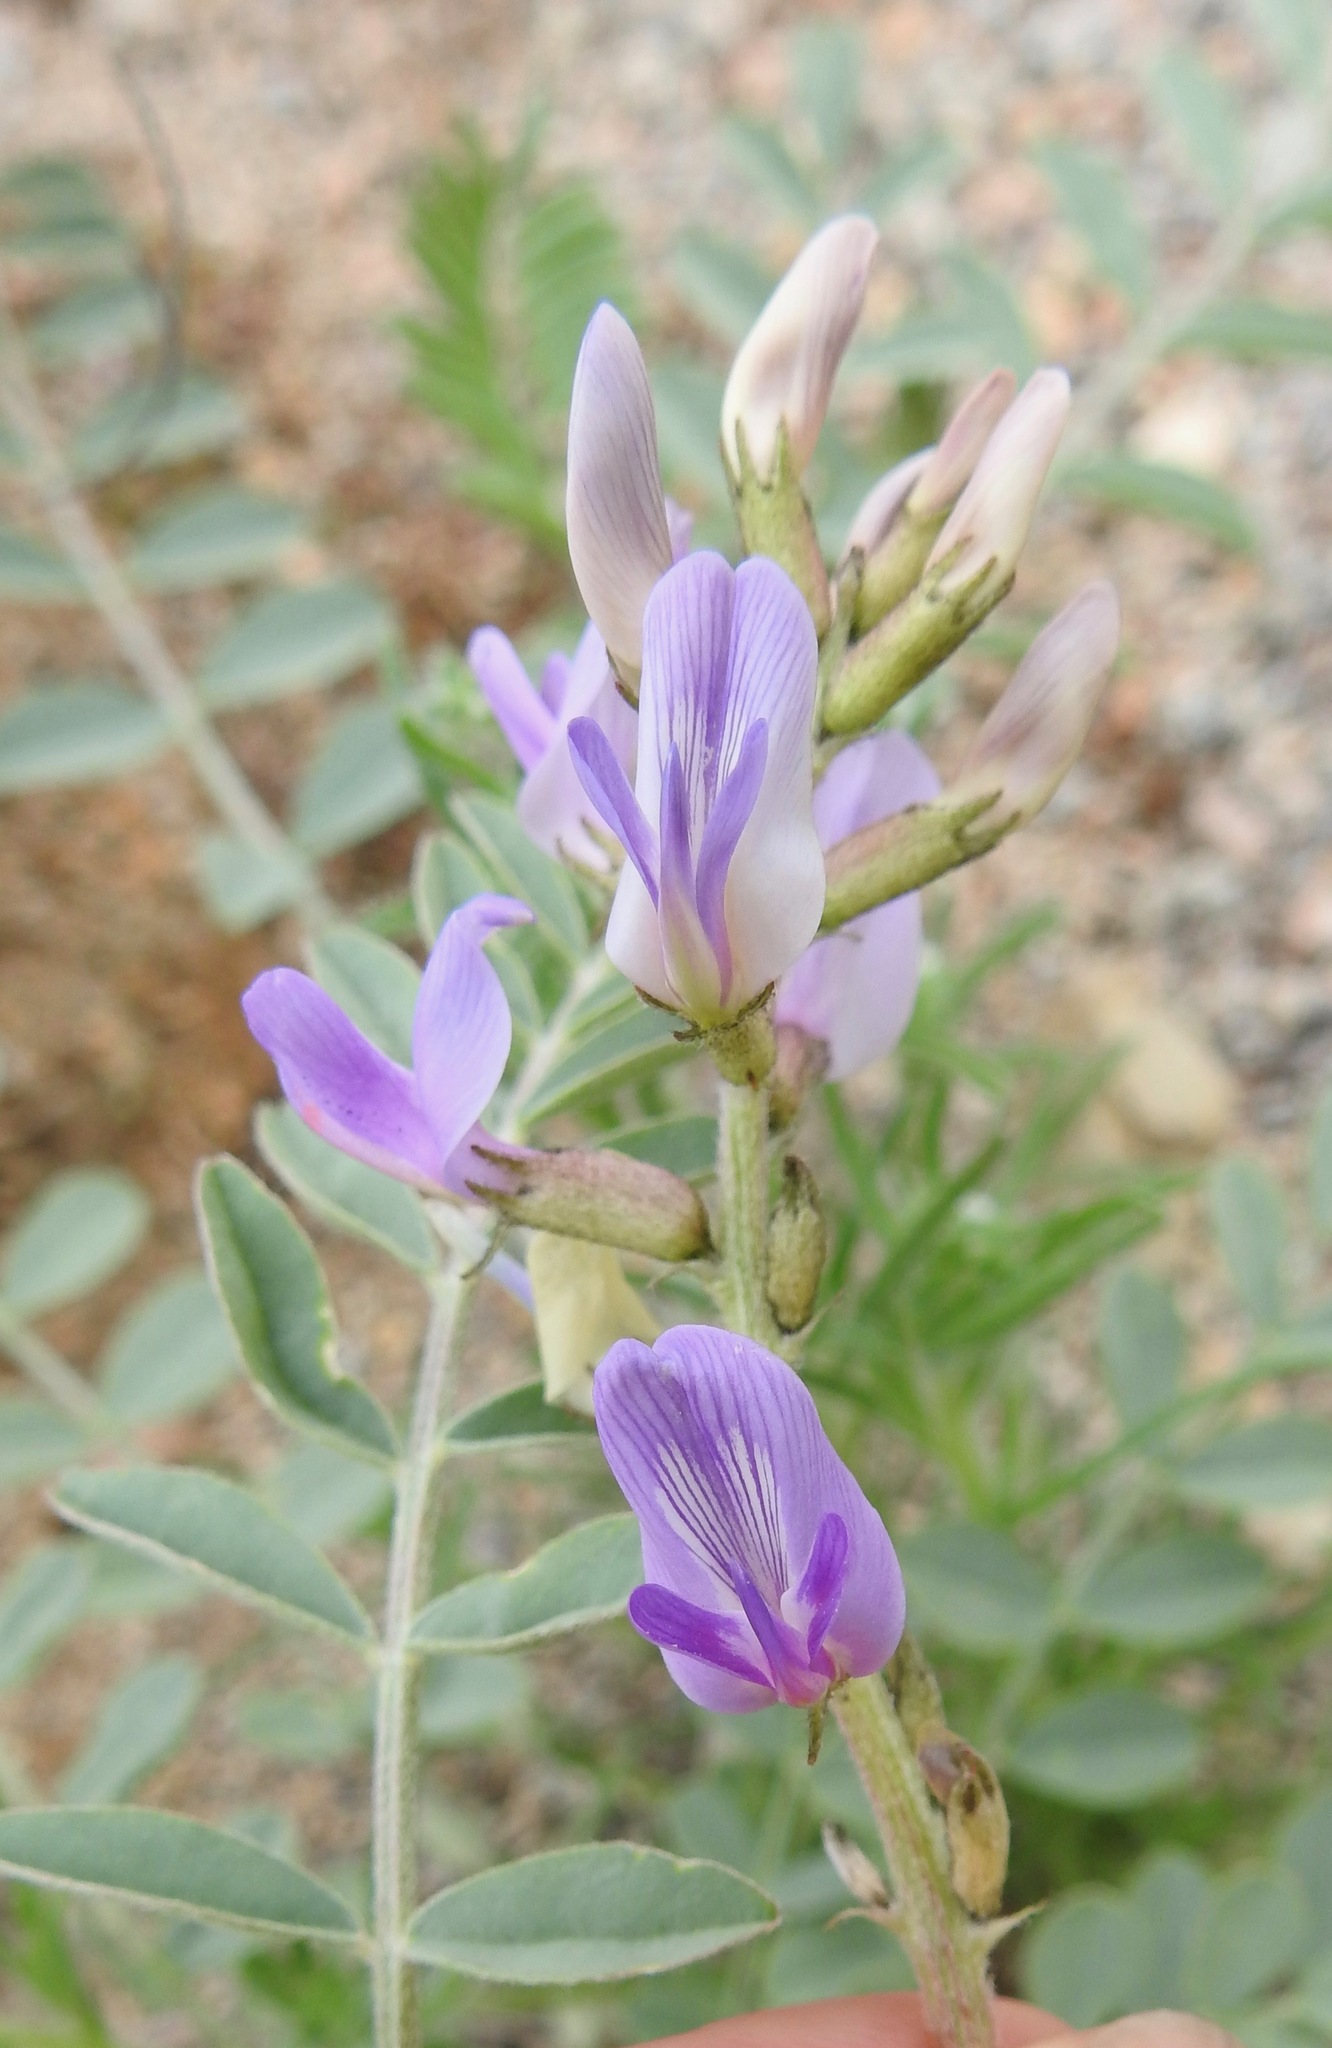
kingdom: Plantae
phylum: Tracheophyta
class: Magnoliopsida
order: Fabales
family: Fabaceae
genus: Astragalus
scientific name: Astragalus lentiginosus
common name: Freckled milkvetch
